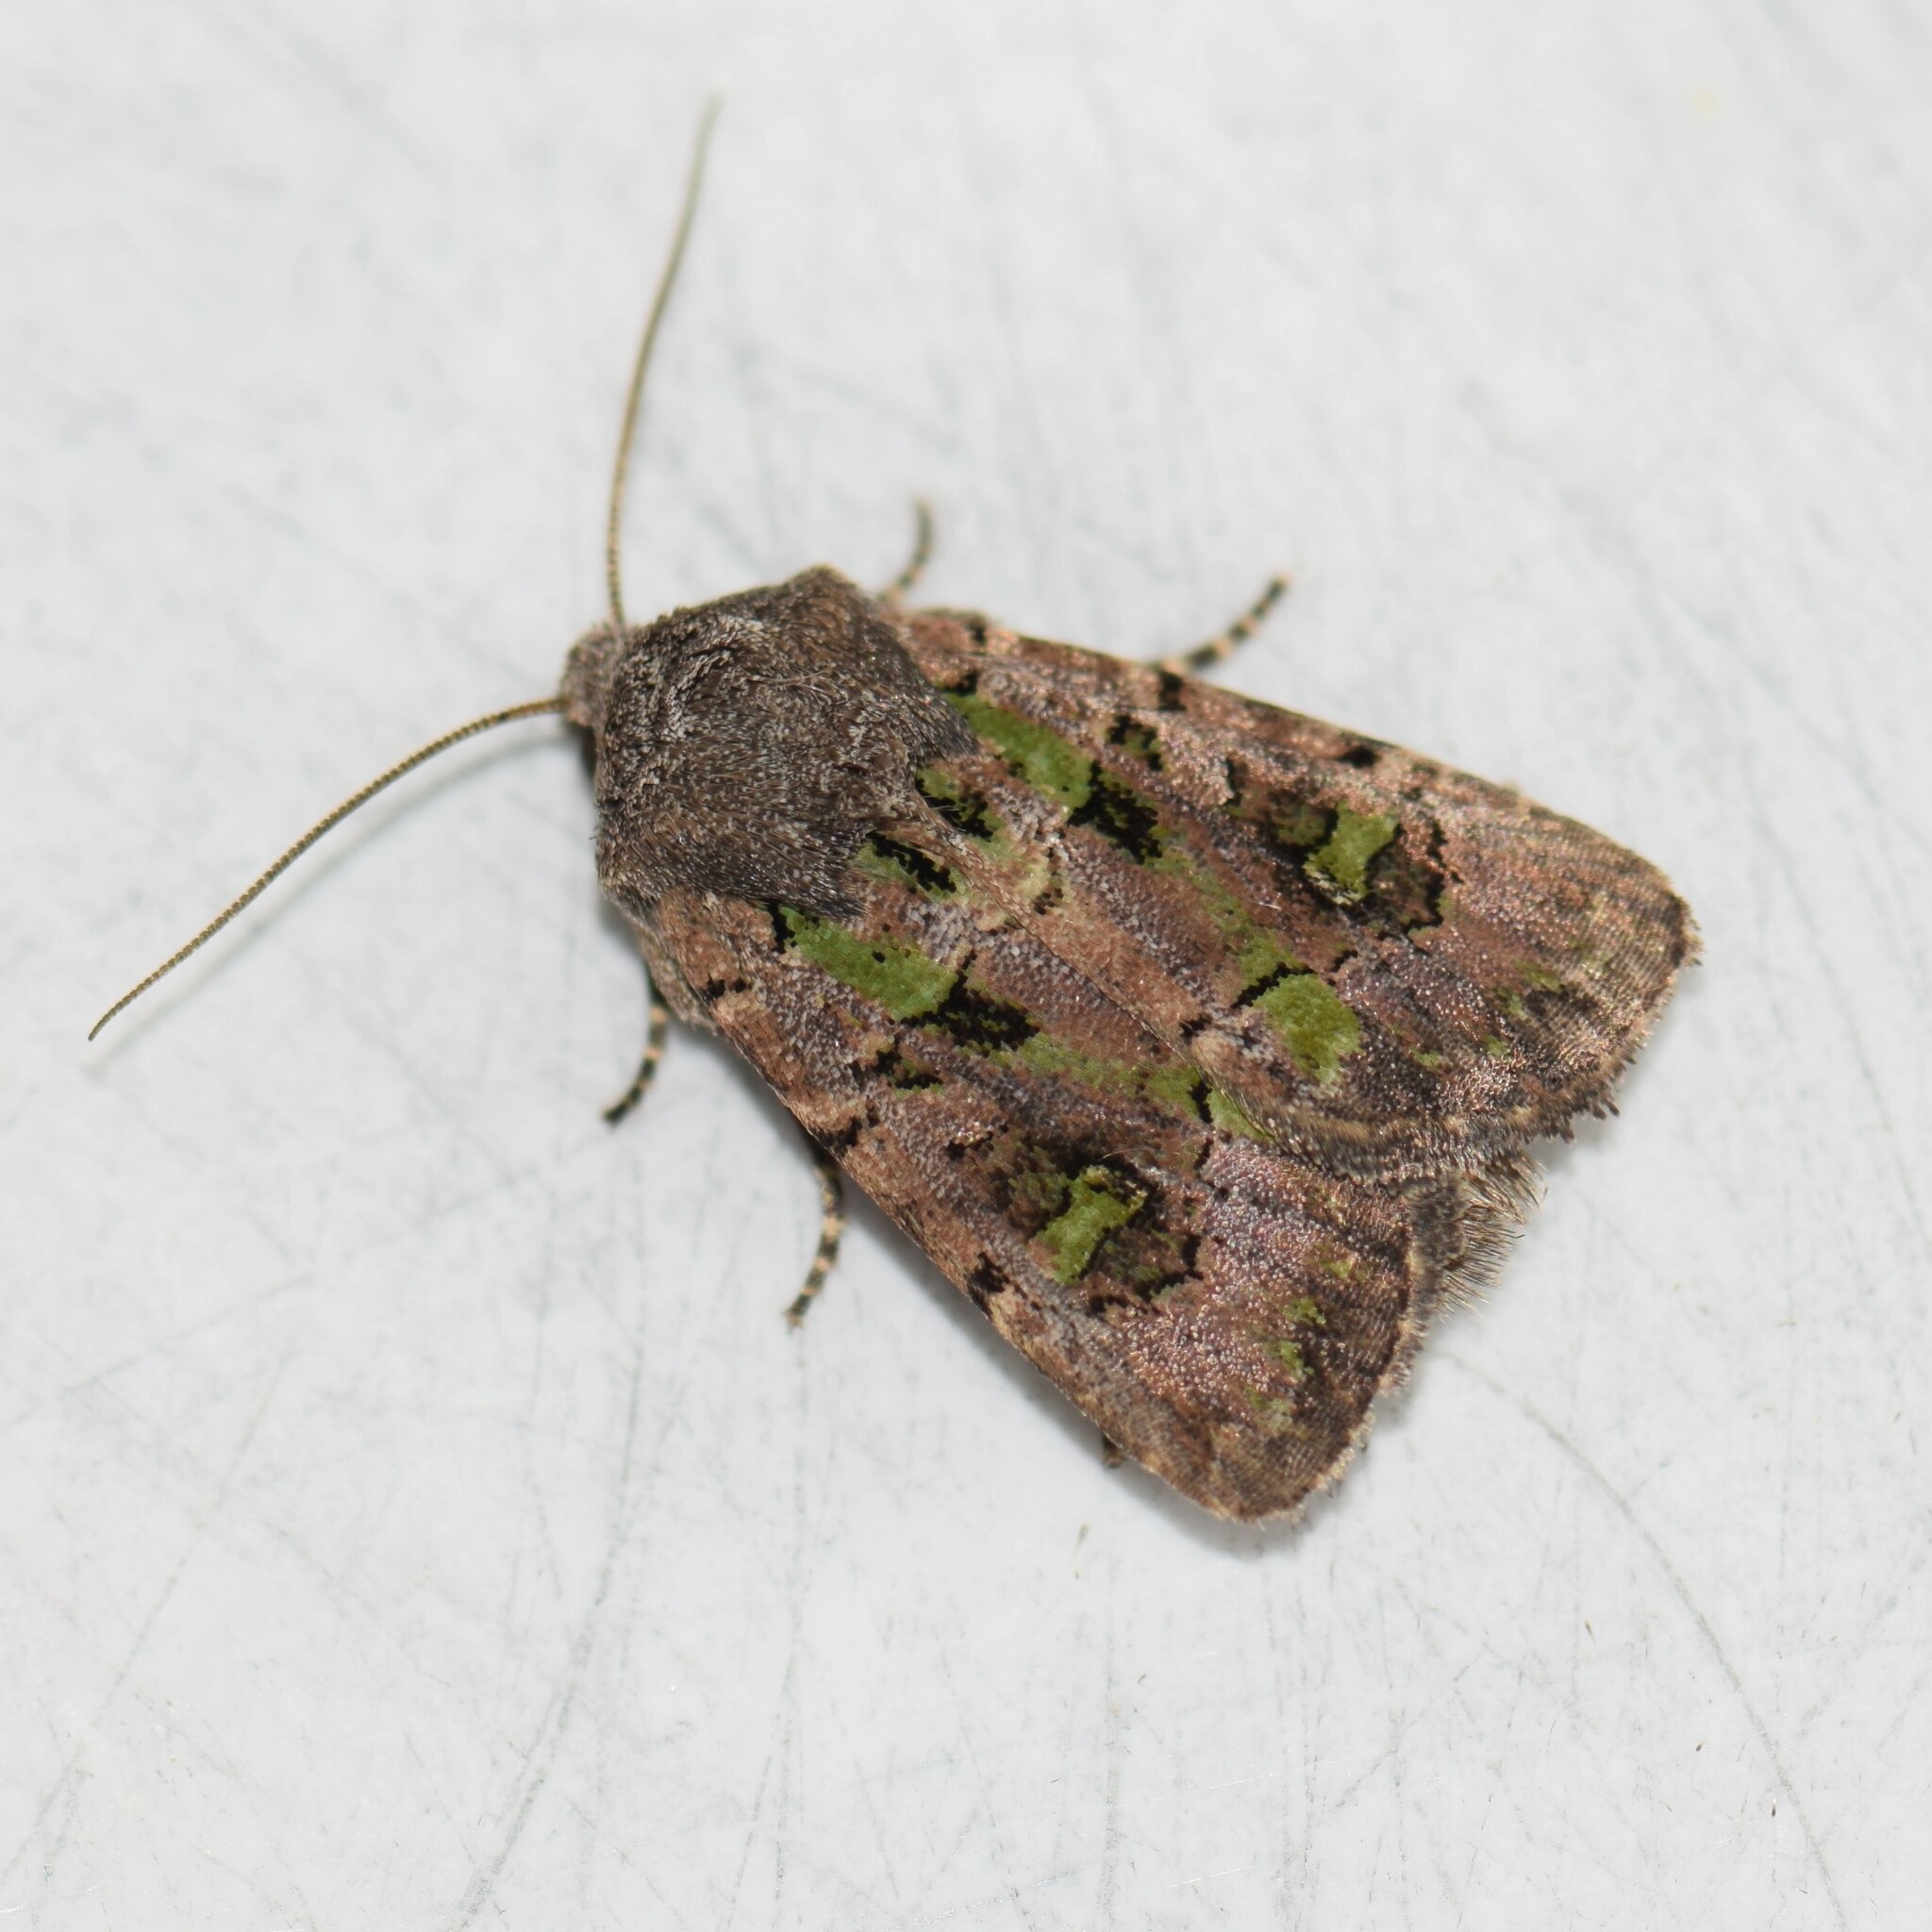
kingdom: Animalia
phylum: Arthropoda
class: Insecta
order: Lepidoptera
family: Noctuidae
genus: Lacinipolia
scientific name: Lacinipolia renigera
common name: Kidney-spotted minor
